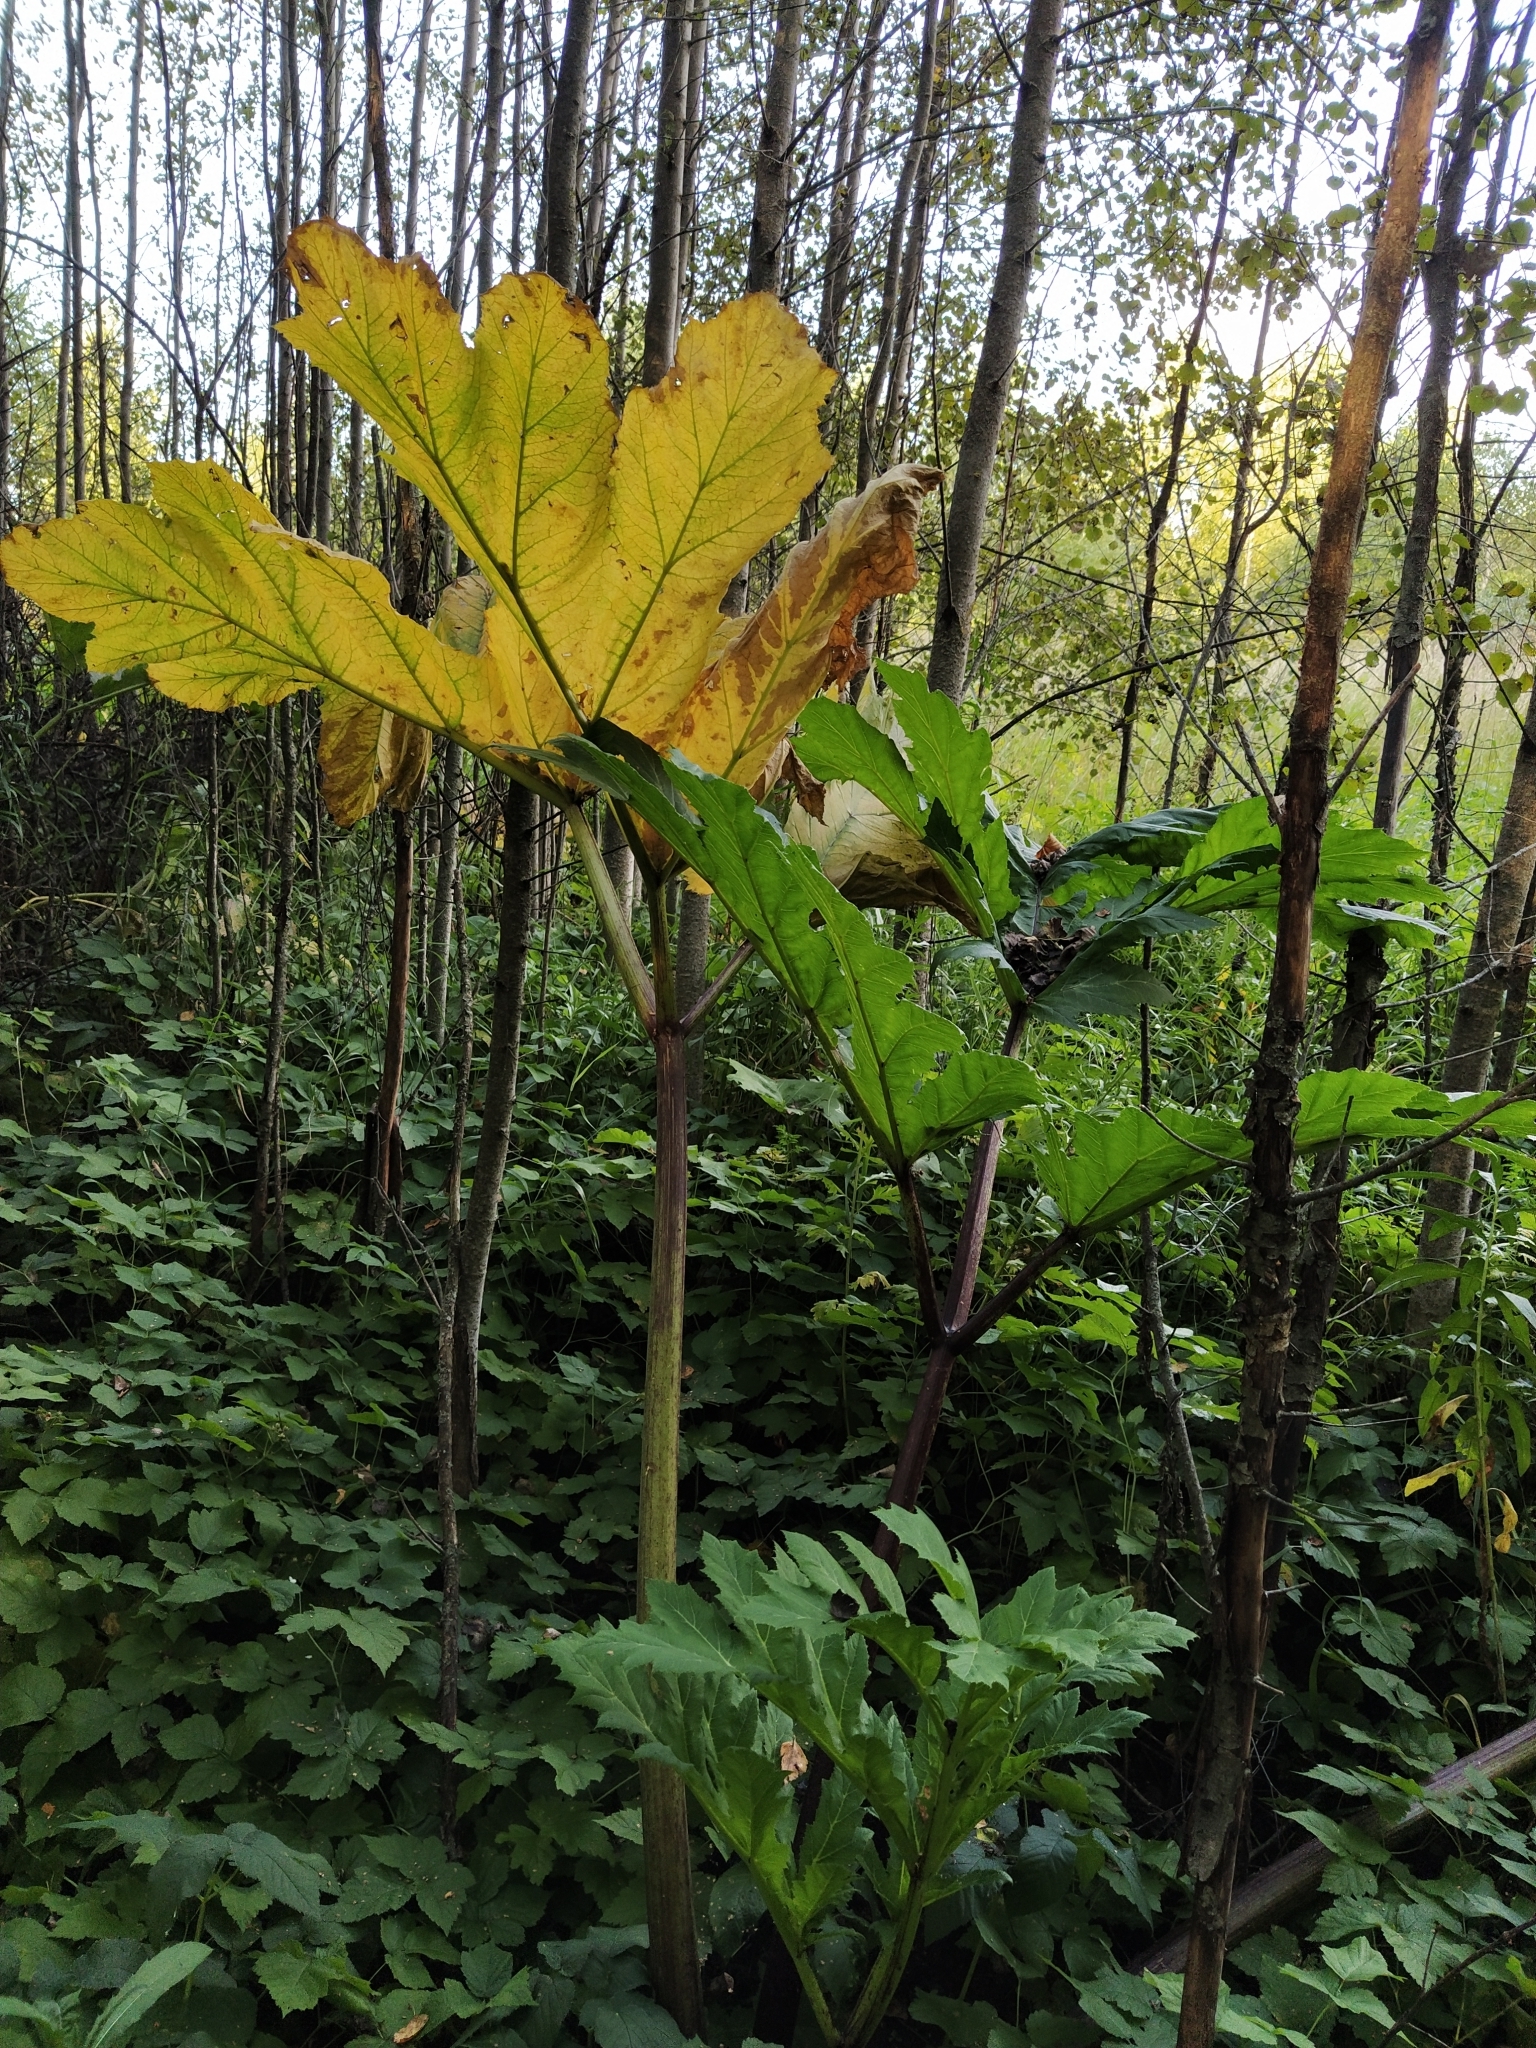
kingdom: Plantae
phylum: Tracheophyta
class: Magnoliopsida
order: Apiales
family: Apiaceae
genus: Heracleum
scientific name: Heracleum sosnowskyi
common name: Sosnowsky's hogweed
